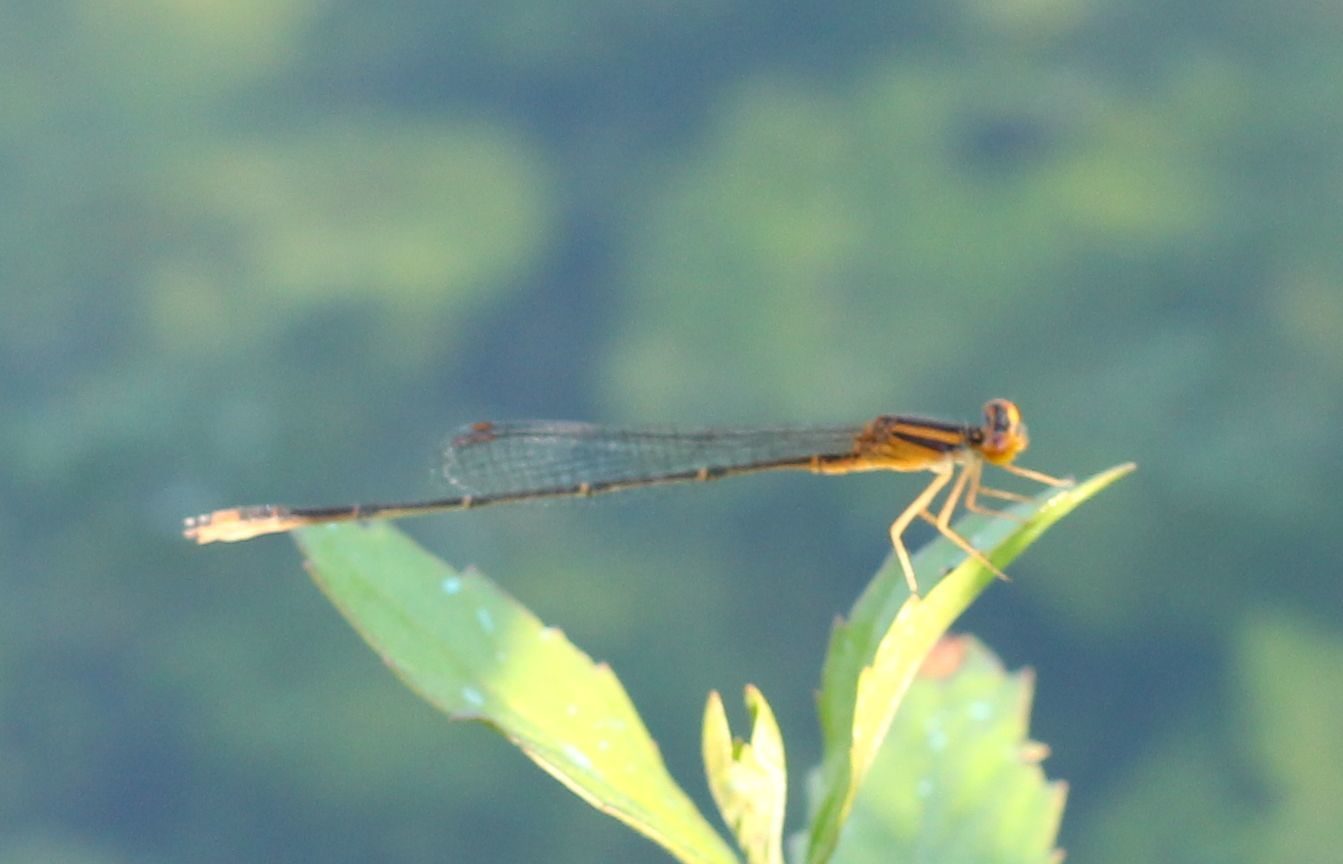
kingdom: Animalia
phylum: Arthropoda
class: Insecta
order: Odonata
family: Coenagrionidae
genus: Enallagma
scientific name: Enallagma signatum
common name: Orange bluet
